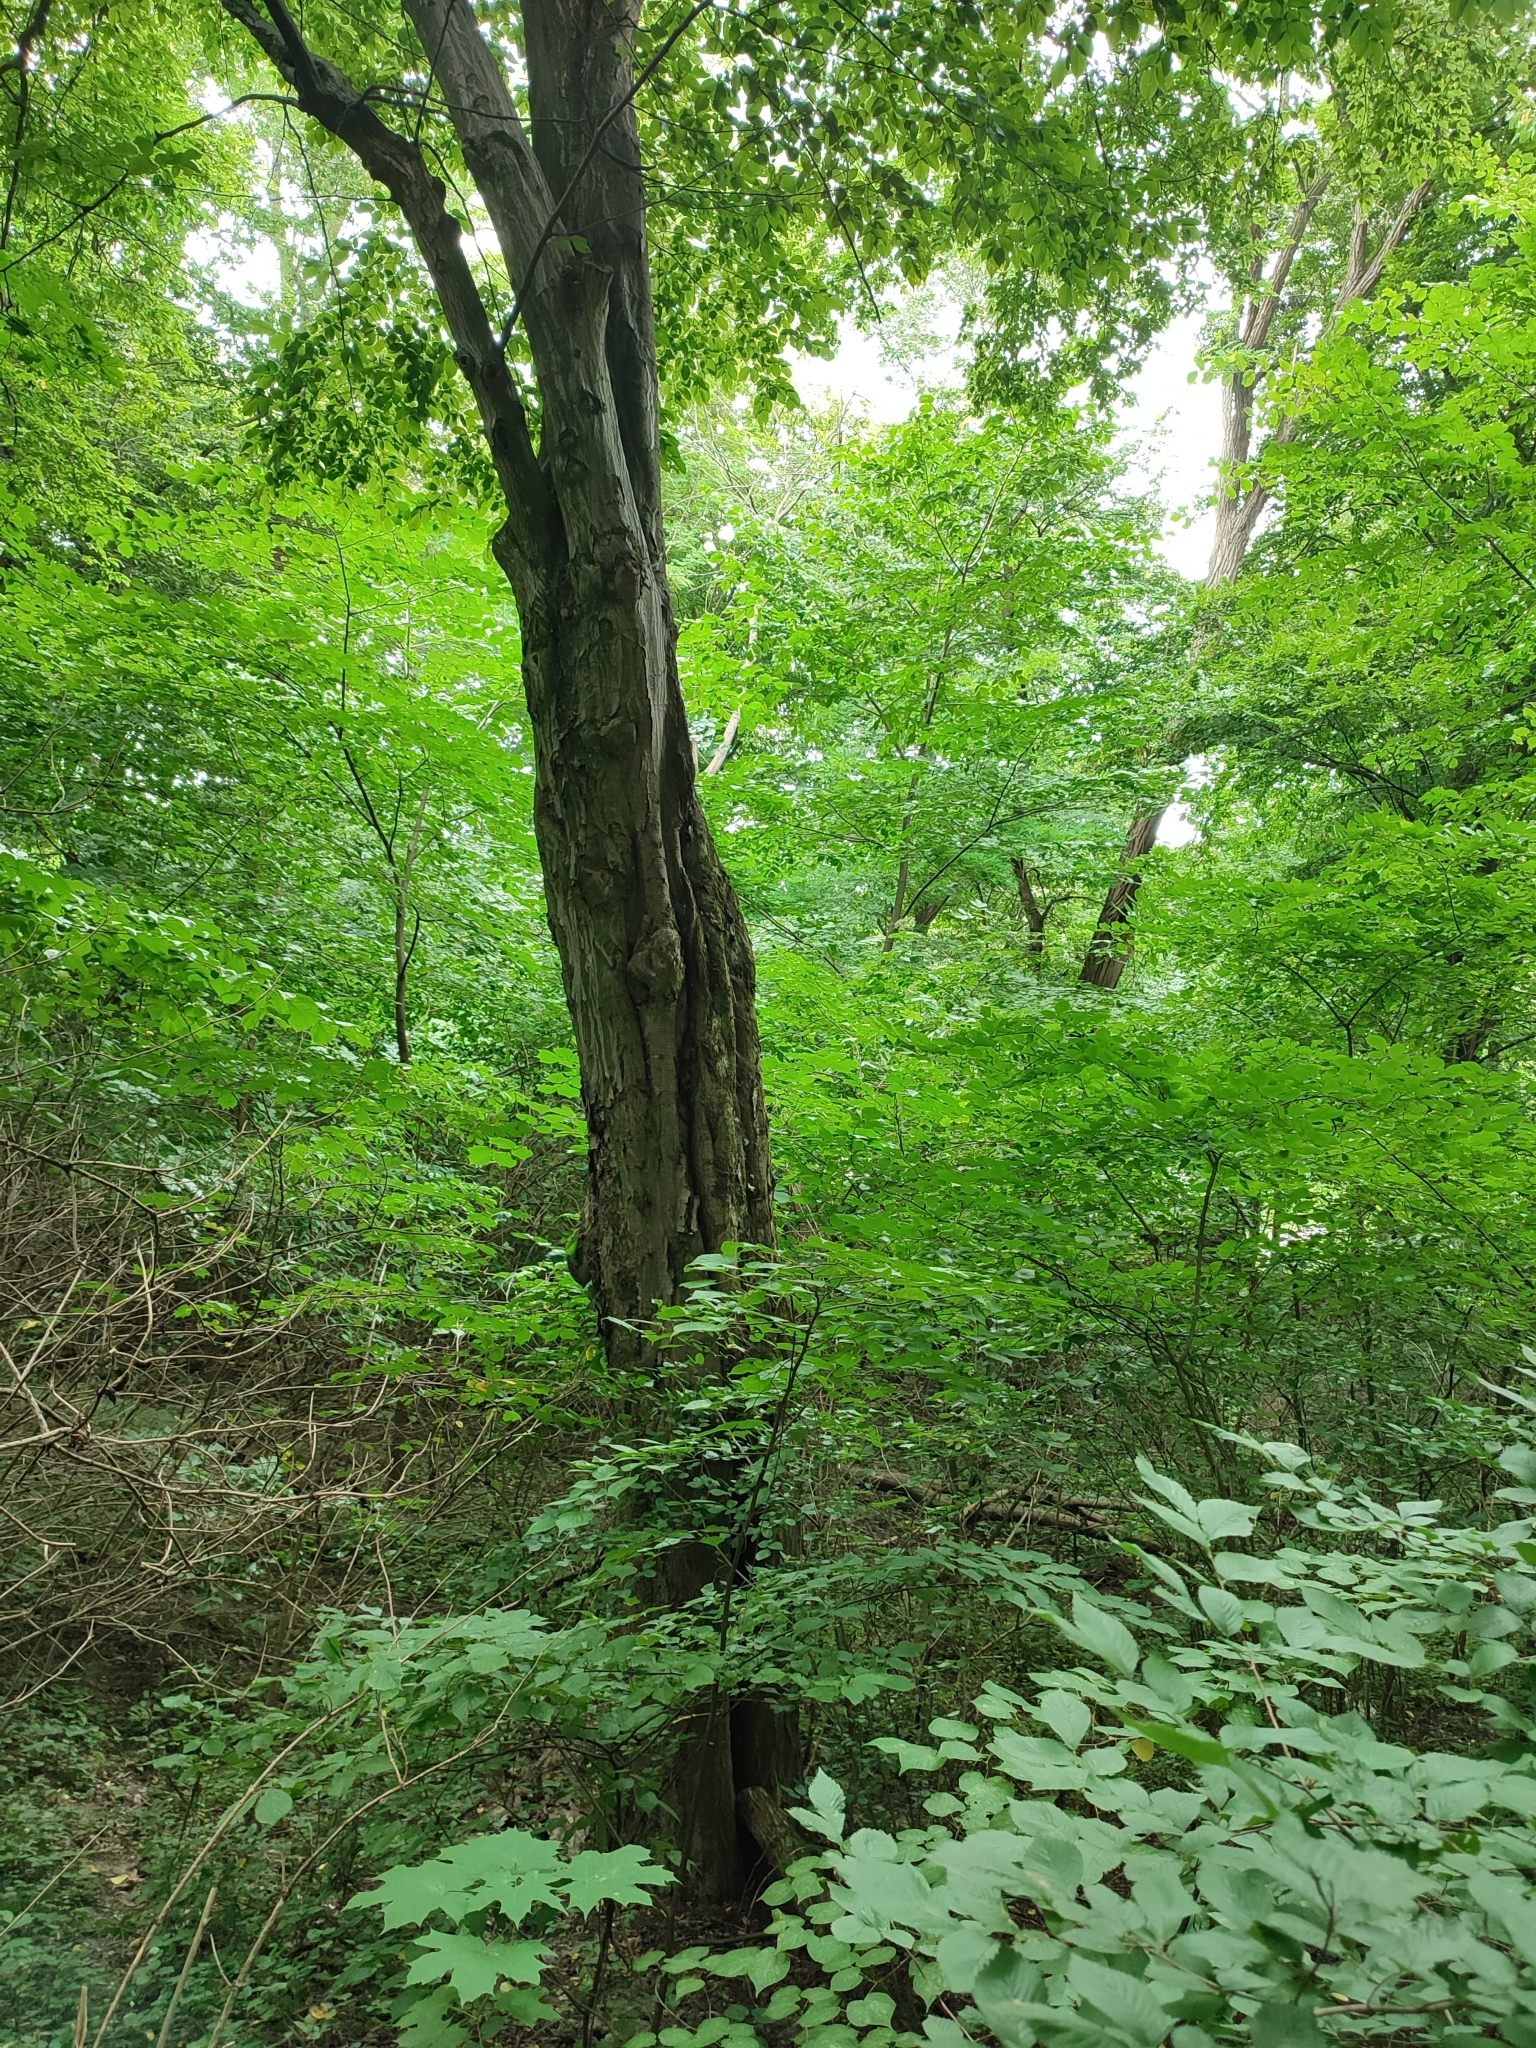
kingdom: Plantae
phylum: Tracheophyta
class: Magnoliopsida
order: Fagales
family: Betulaceae
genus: Carpinus
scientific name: Carpinus betulus
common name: Hornbeam
